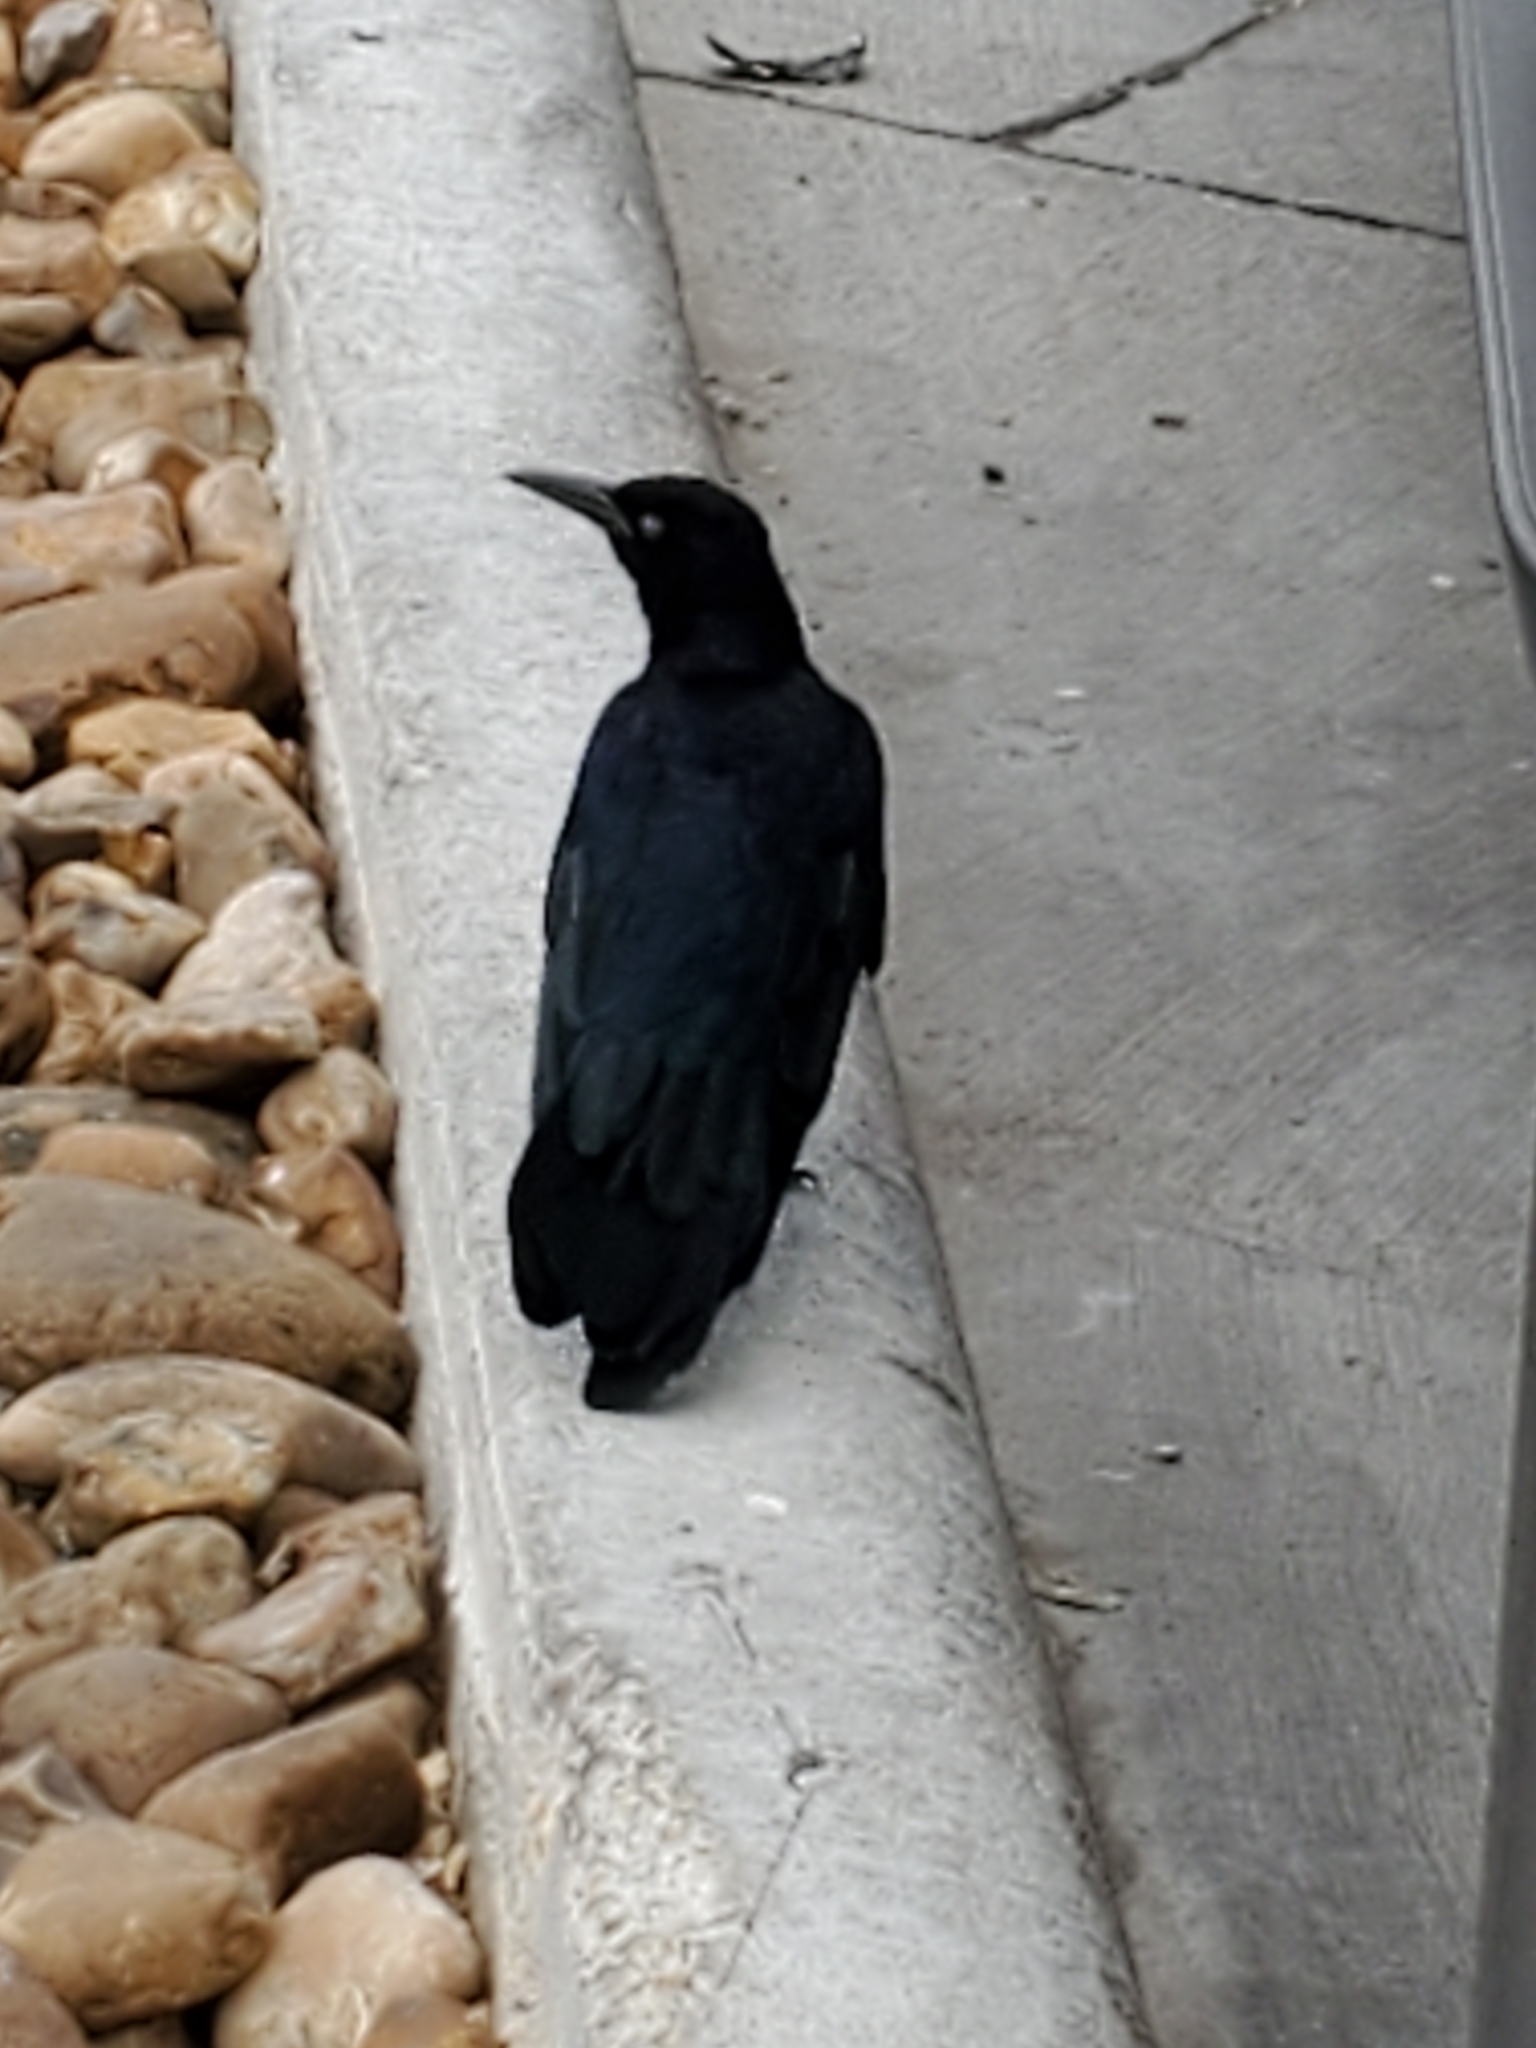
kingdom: Animalia
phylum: Chordata
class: Aves
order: Passeriformes
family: Icteridae
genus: Quiscalus
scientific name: Quiscalus mexicanus
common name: Great-tailed grackle
